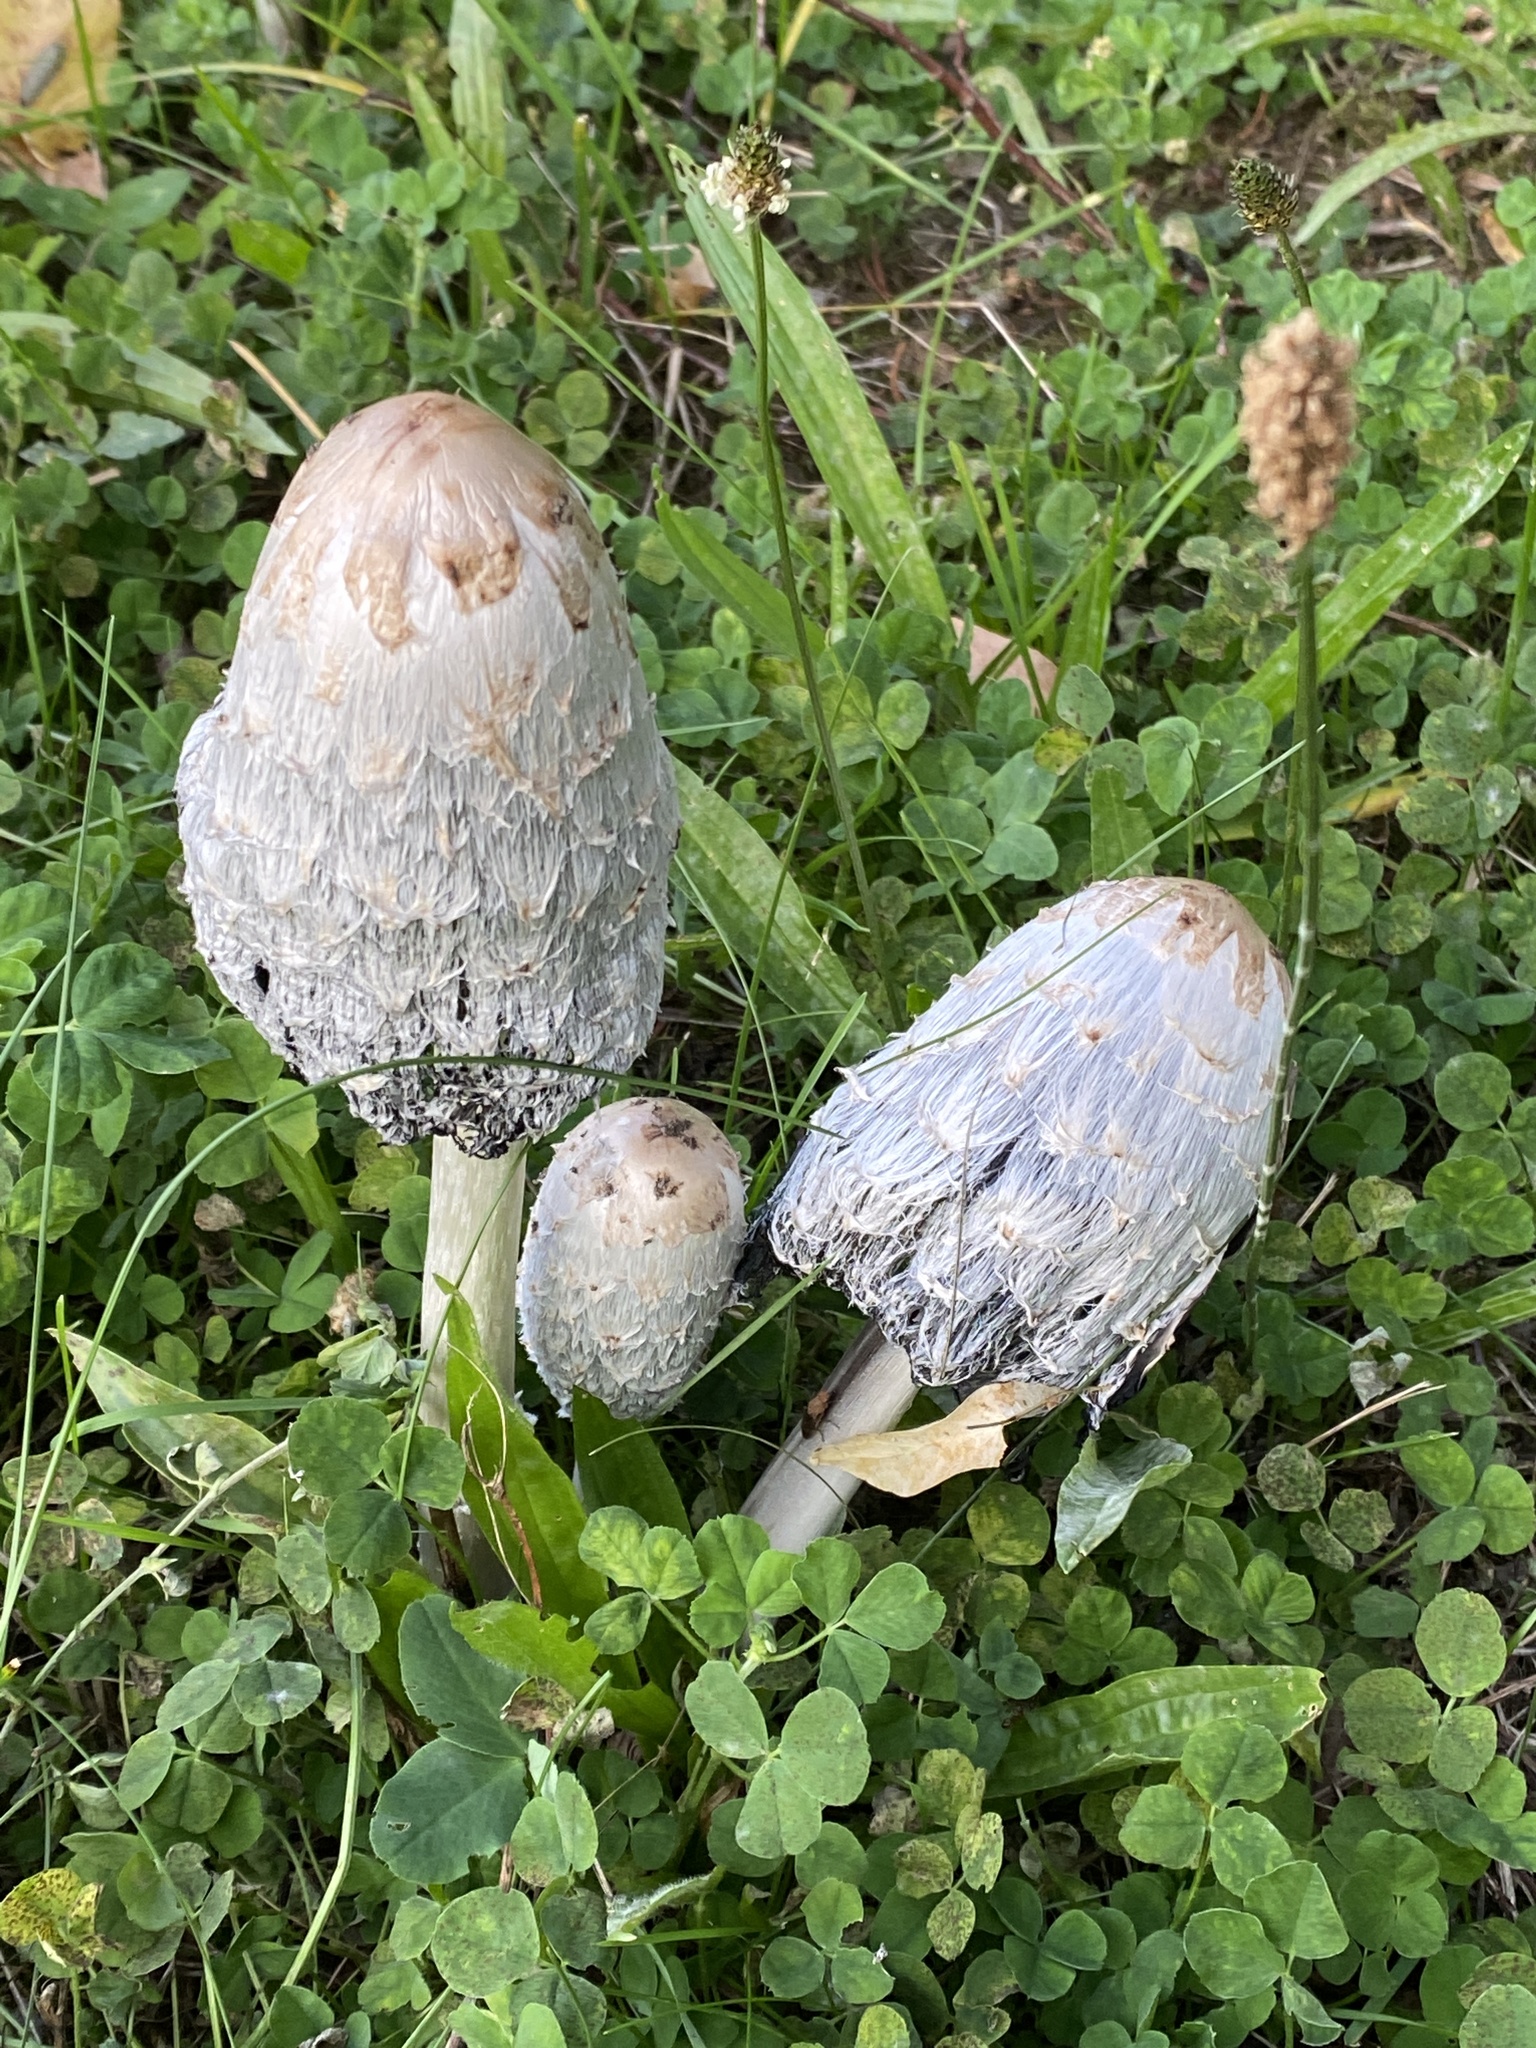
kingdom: Fungi
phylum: Basidiomycota
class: Agaricomycetes
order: Agaricales
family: Agaricaceae
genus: Coprinus
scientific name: Coprinus comatus
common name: Lawyer's wig
